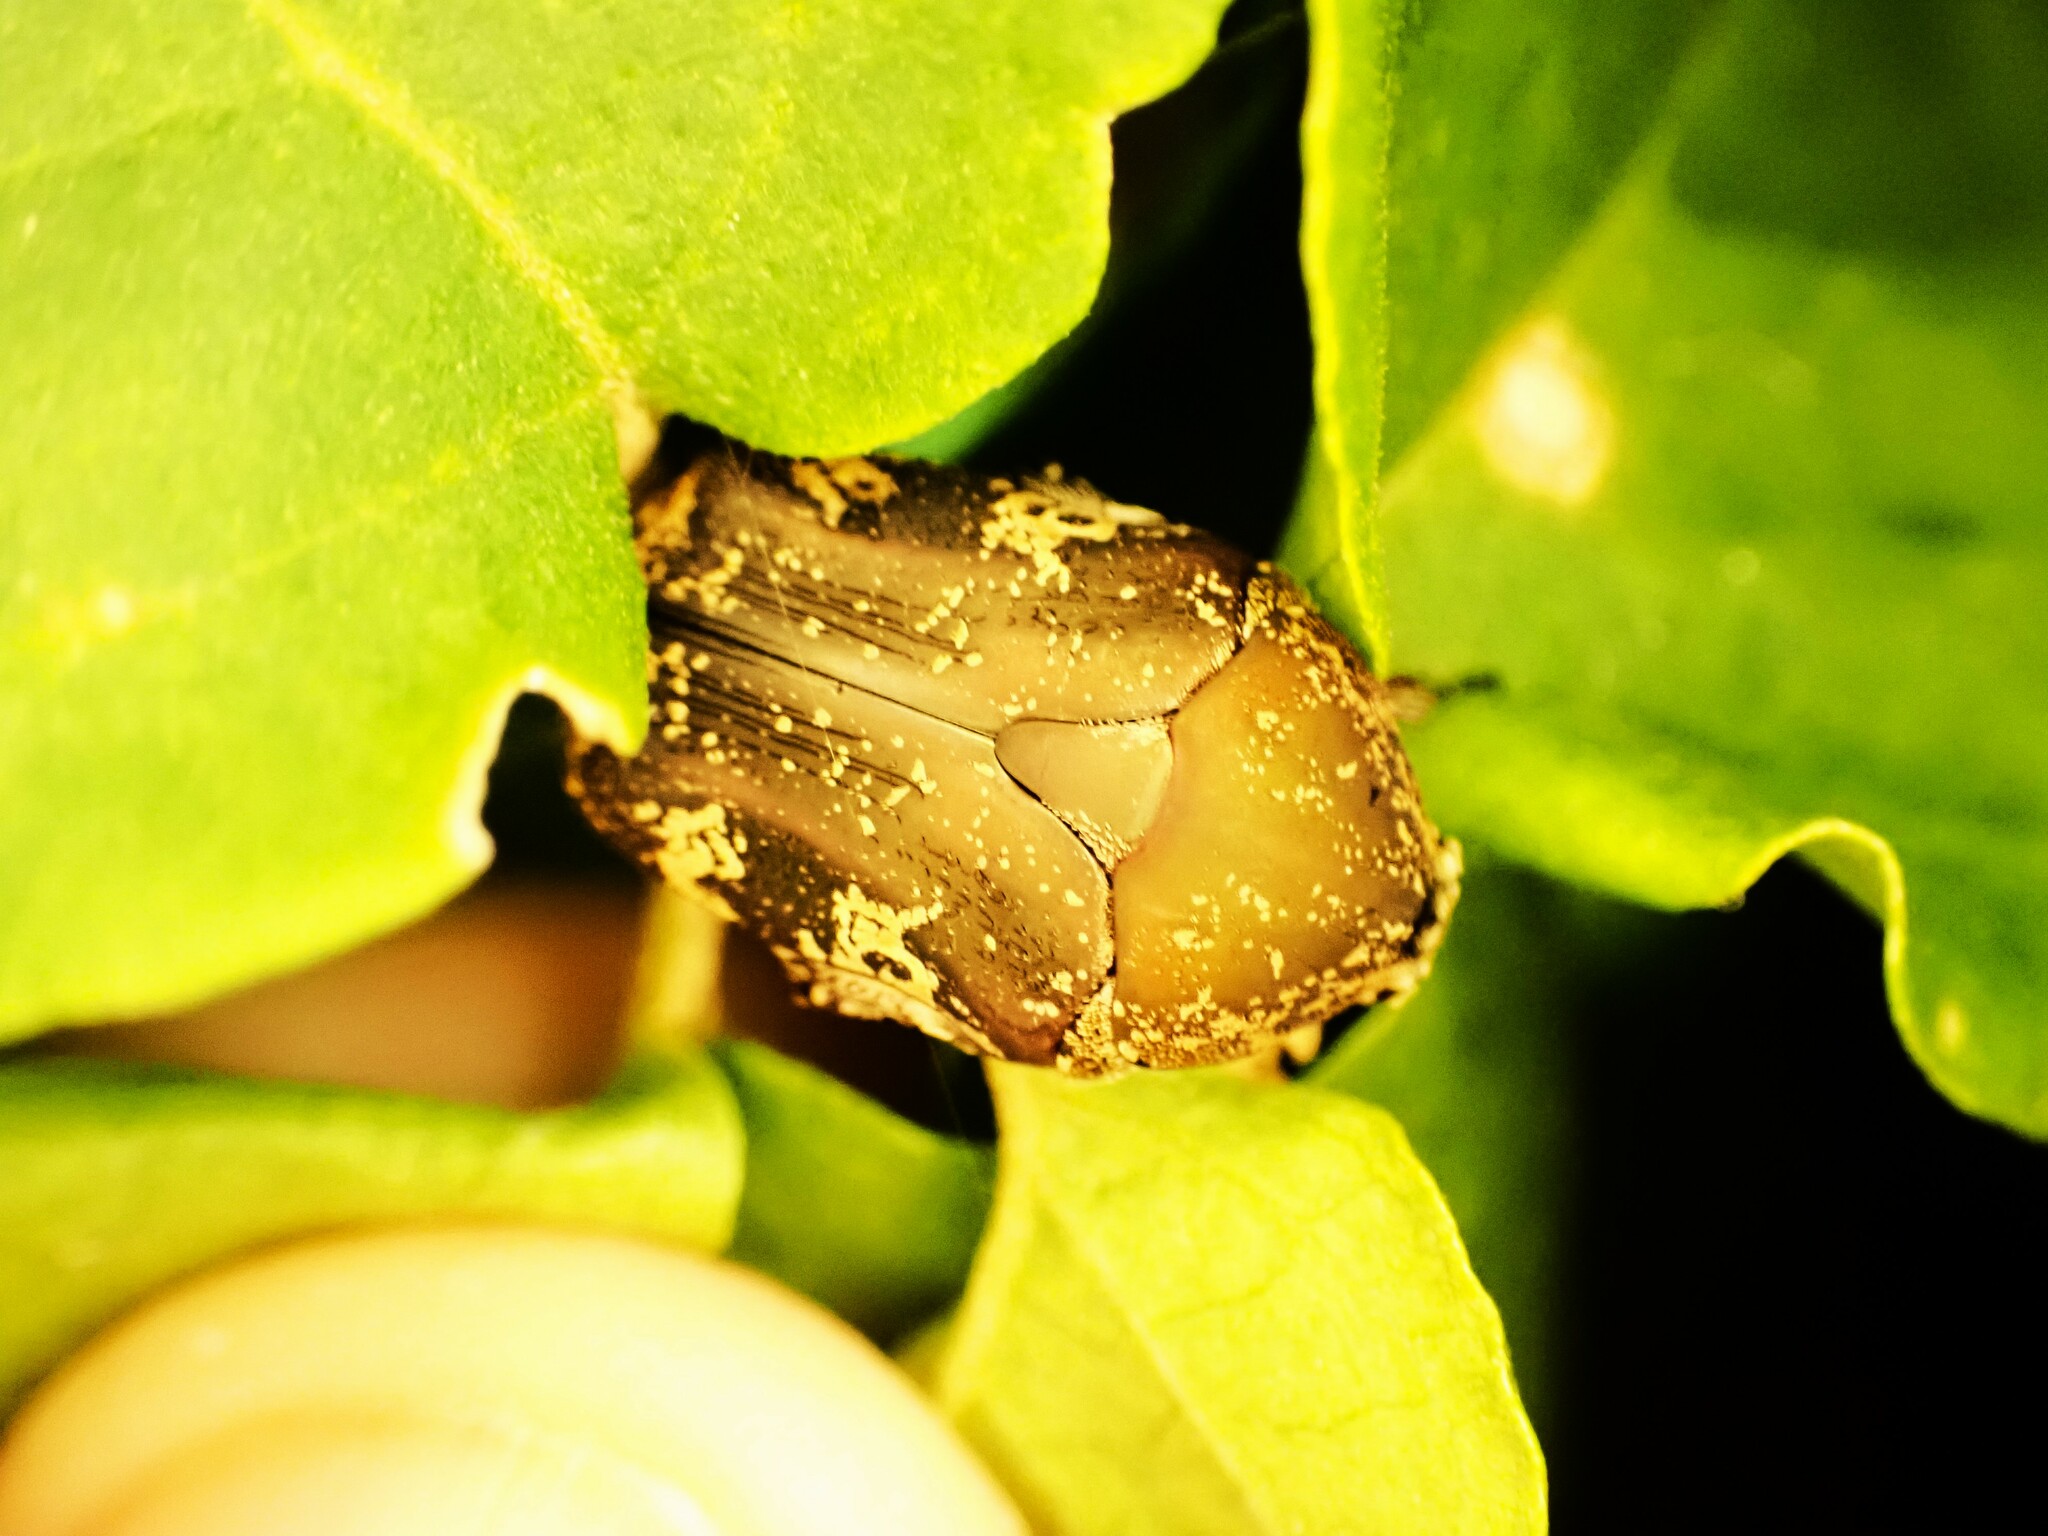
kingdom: Animalia
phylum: Arthropoda
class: Insecta
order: Coleoptera
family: Scarabaeidae
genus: Protaetia
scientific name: Protaetia fusca
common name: Mango flower beetle
